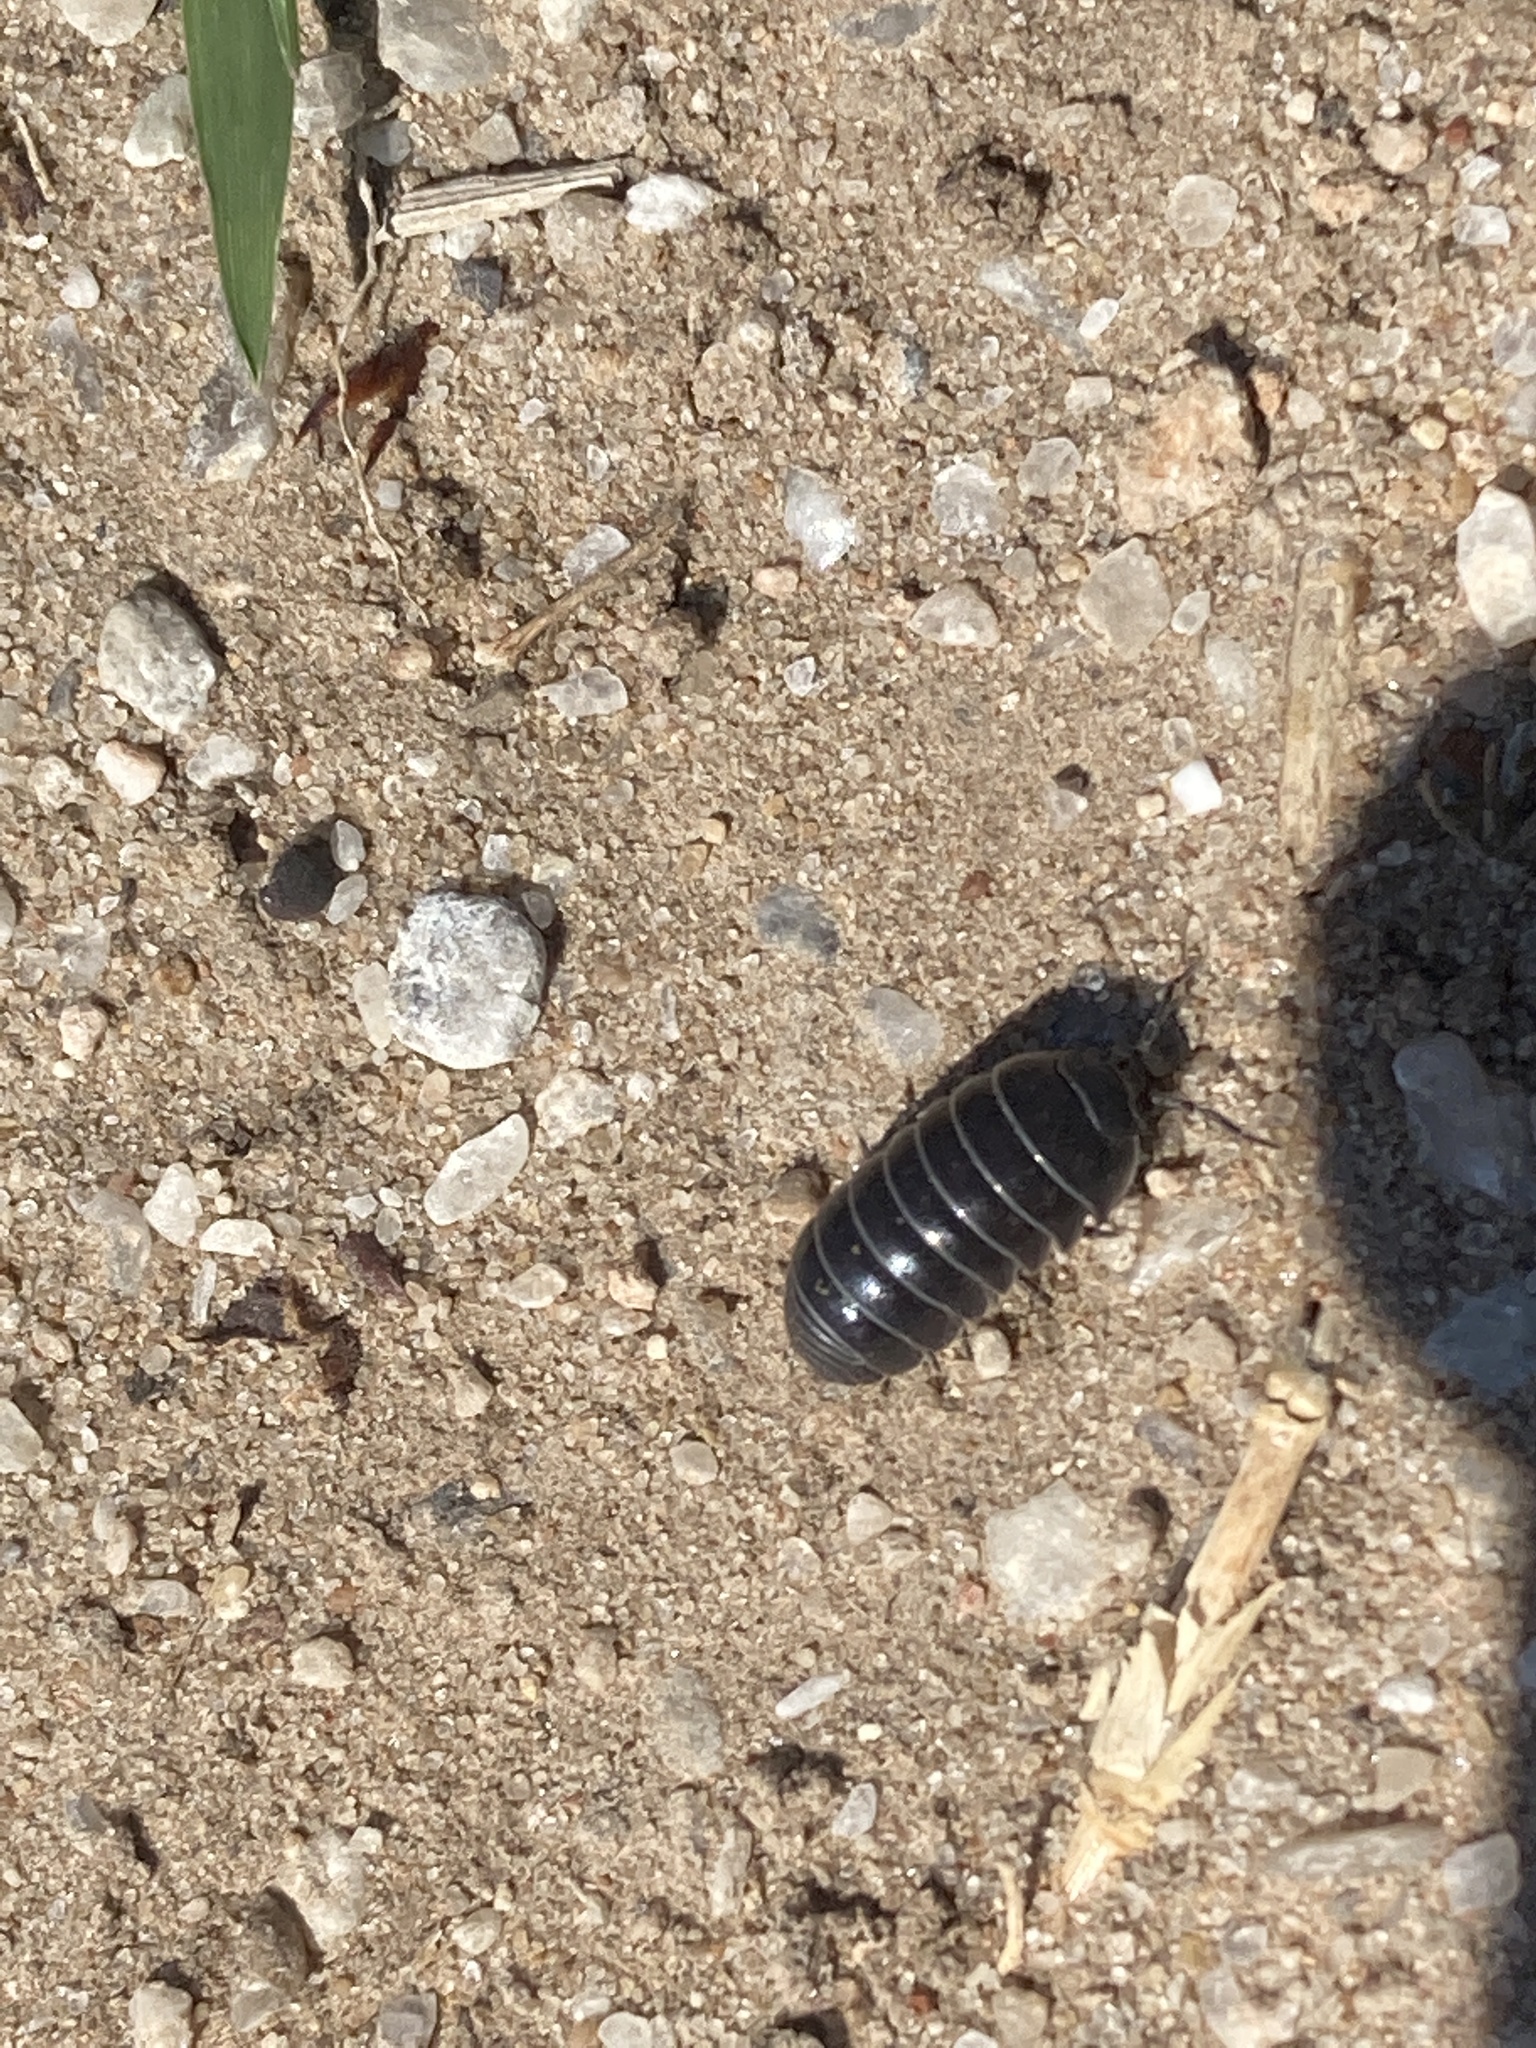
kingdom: Animalia
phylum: Arthropoda
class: Malacostraca
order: Isopoda
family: Armadillidiidae
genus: Armadillidium
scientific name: Armadillidium vulgare
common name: Common pill woodlouse
